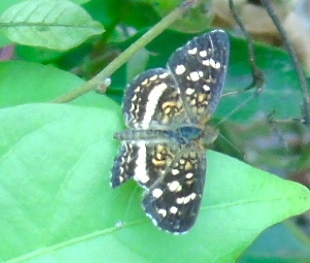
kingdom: Animalia
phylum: Arthropoda
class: Insecta
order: Lepidoptera
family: Nymphalidae
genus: Anthanassa
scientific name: Anthanassa tulcis
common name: Pale-banded crescent
